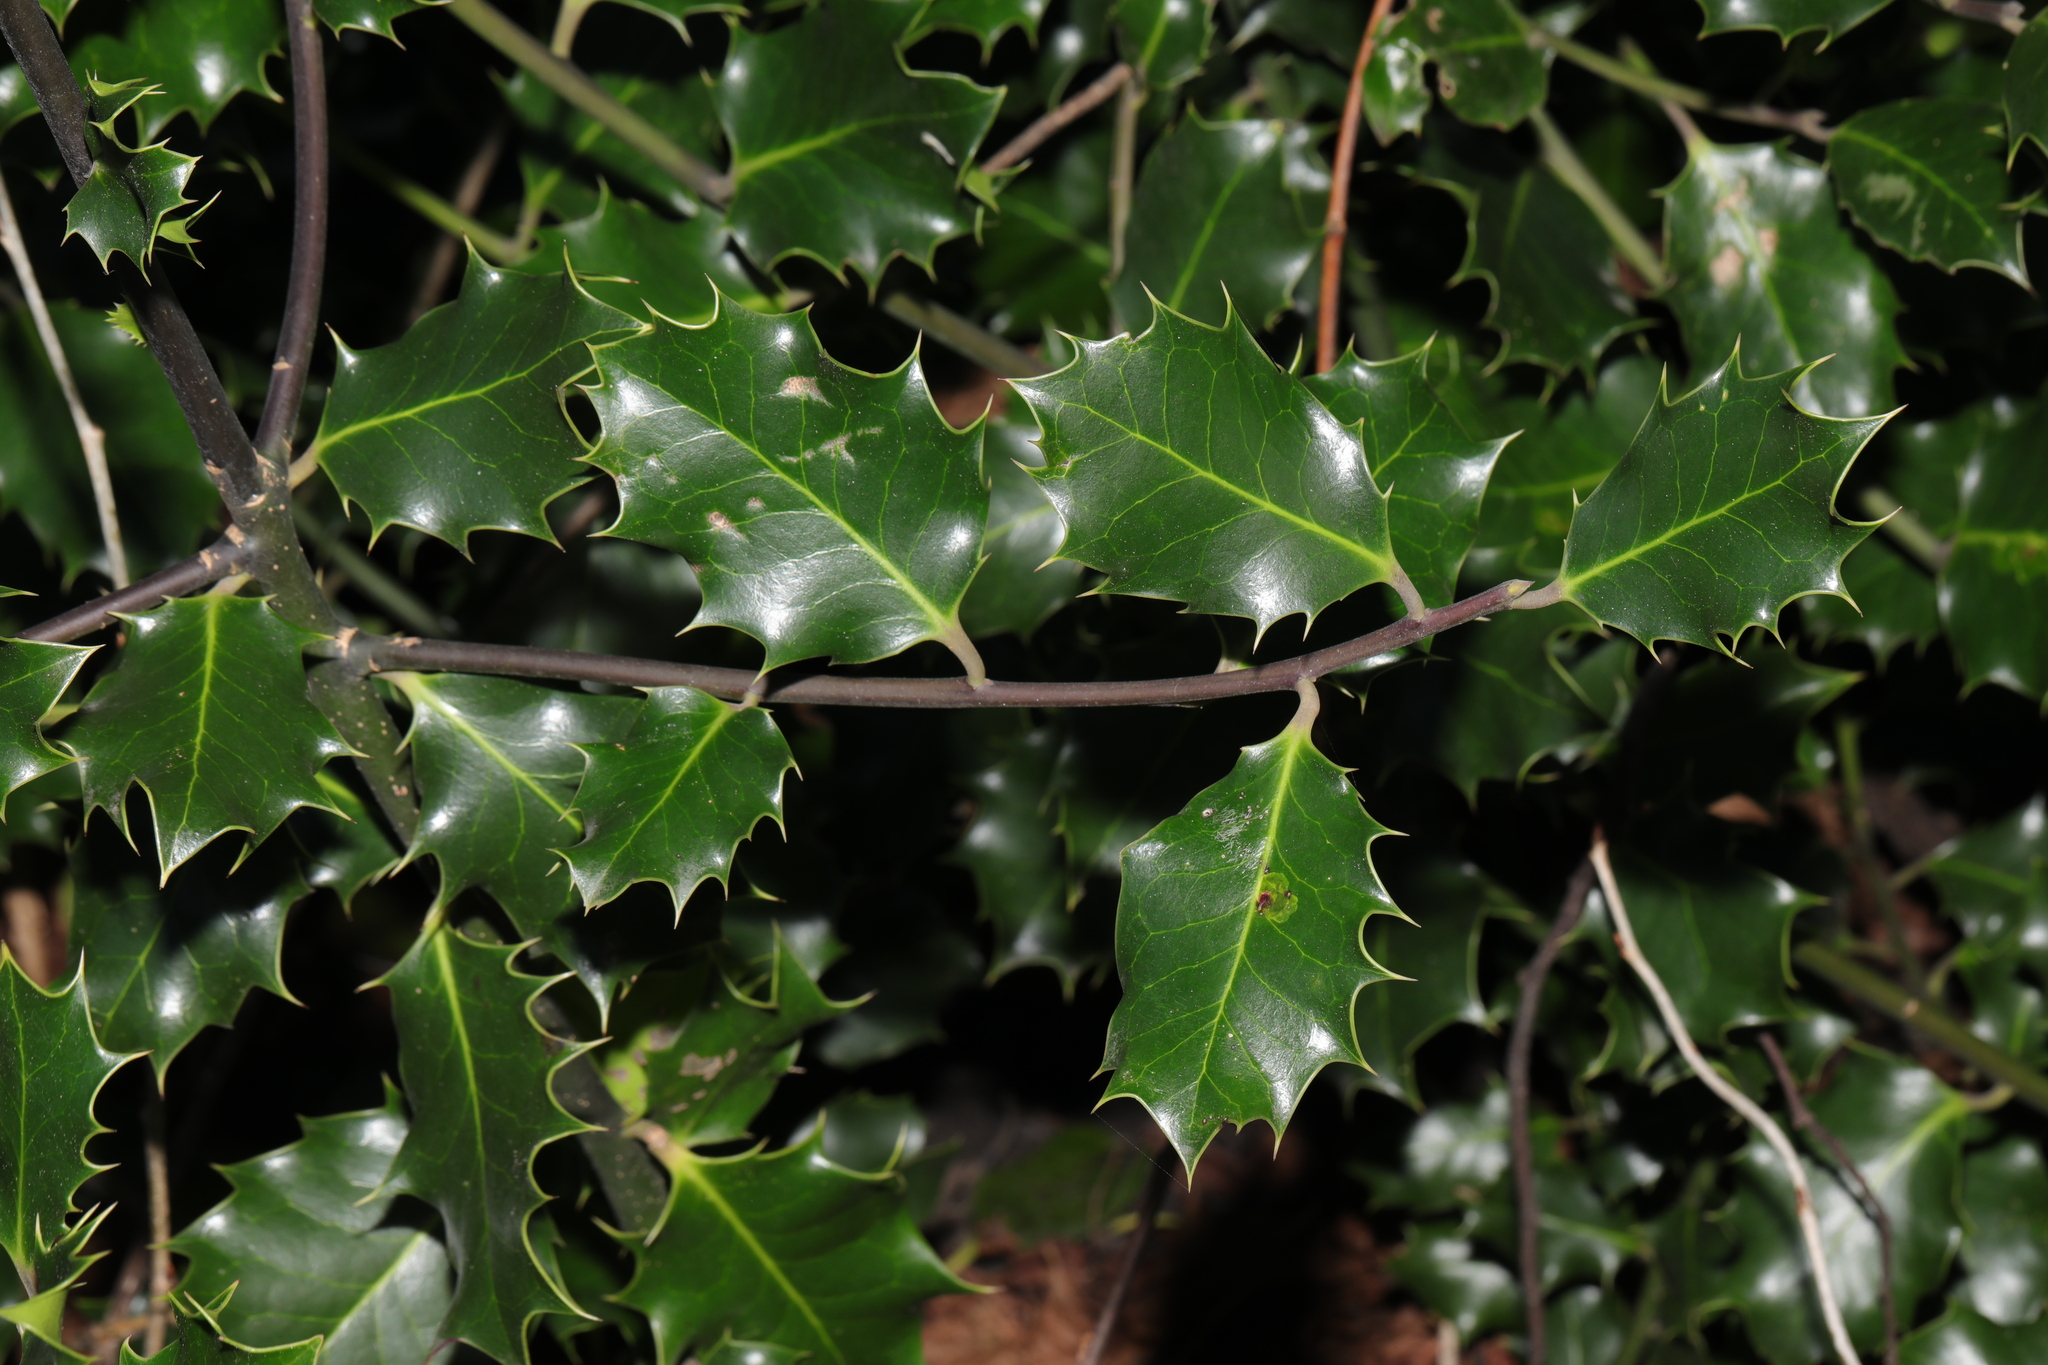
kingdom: Plantae
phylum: Tracheophyta
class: Magnoliopsida
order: Aquifoliales
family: Aquifoliaceae
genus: Ilex
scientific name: Ilex aquifolium
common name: English holly
